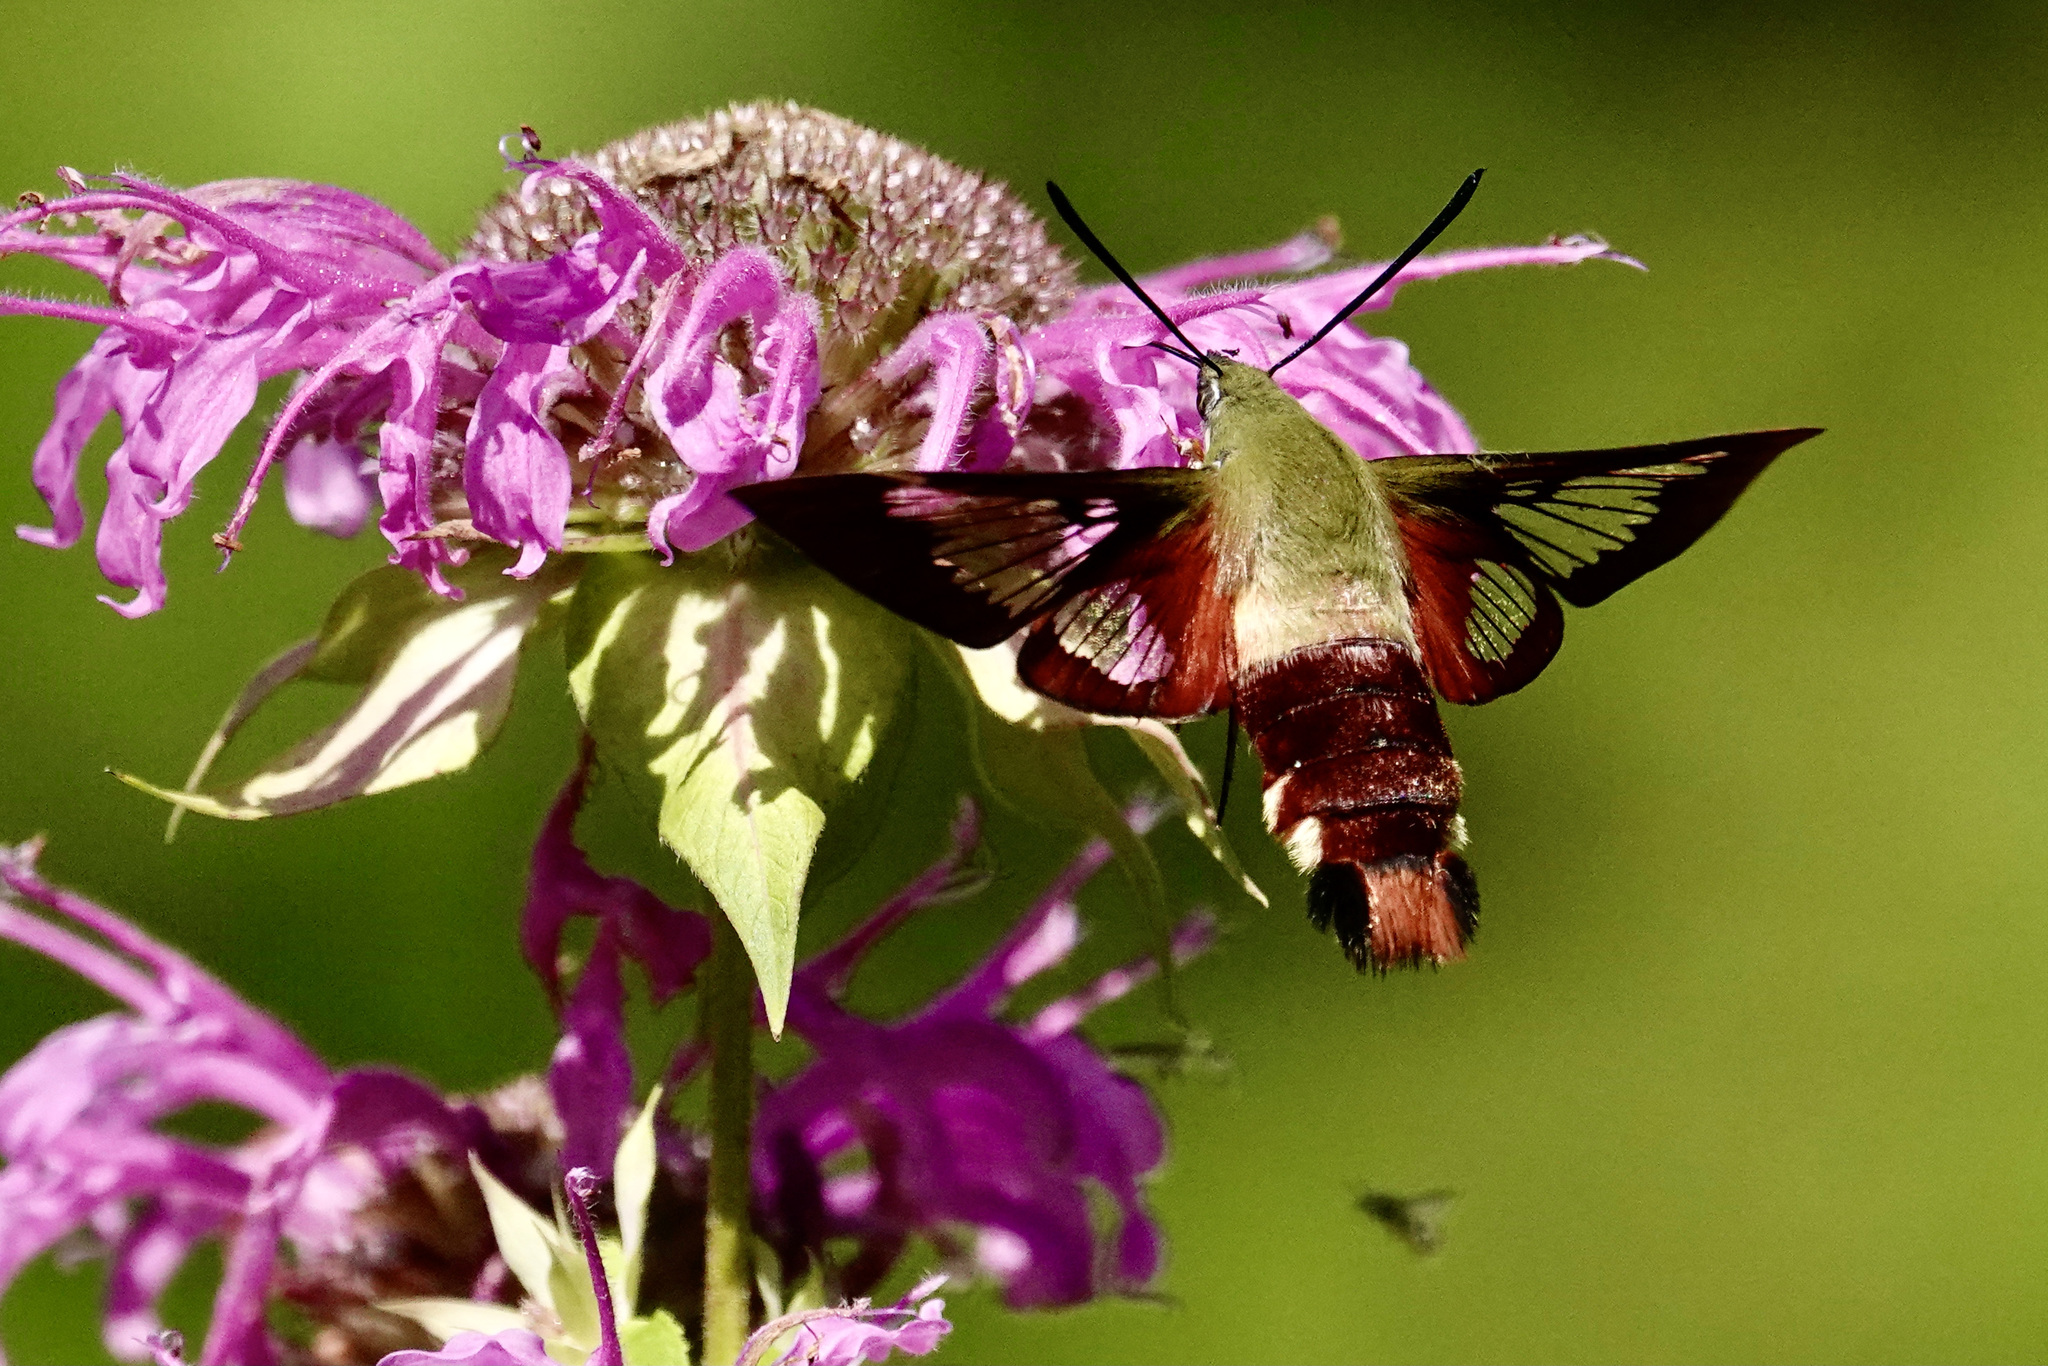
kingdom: Animalia
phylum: Arthropoda
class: Insecta
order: Lepidoptera
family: Sphingidae
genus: Hemaris
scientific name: Hemaris thysbe
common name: Common clear-wing
